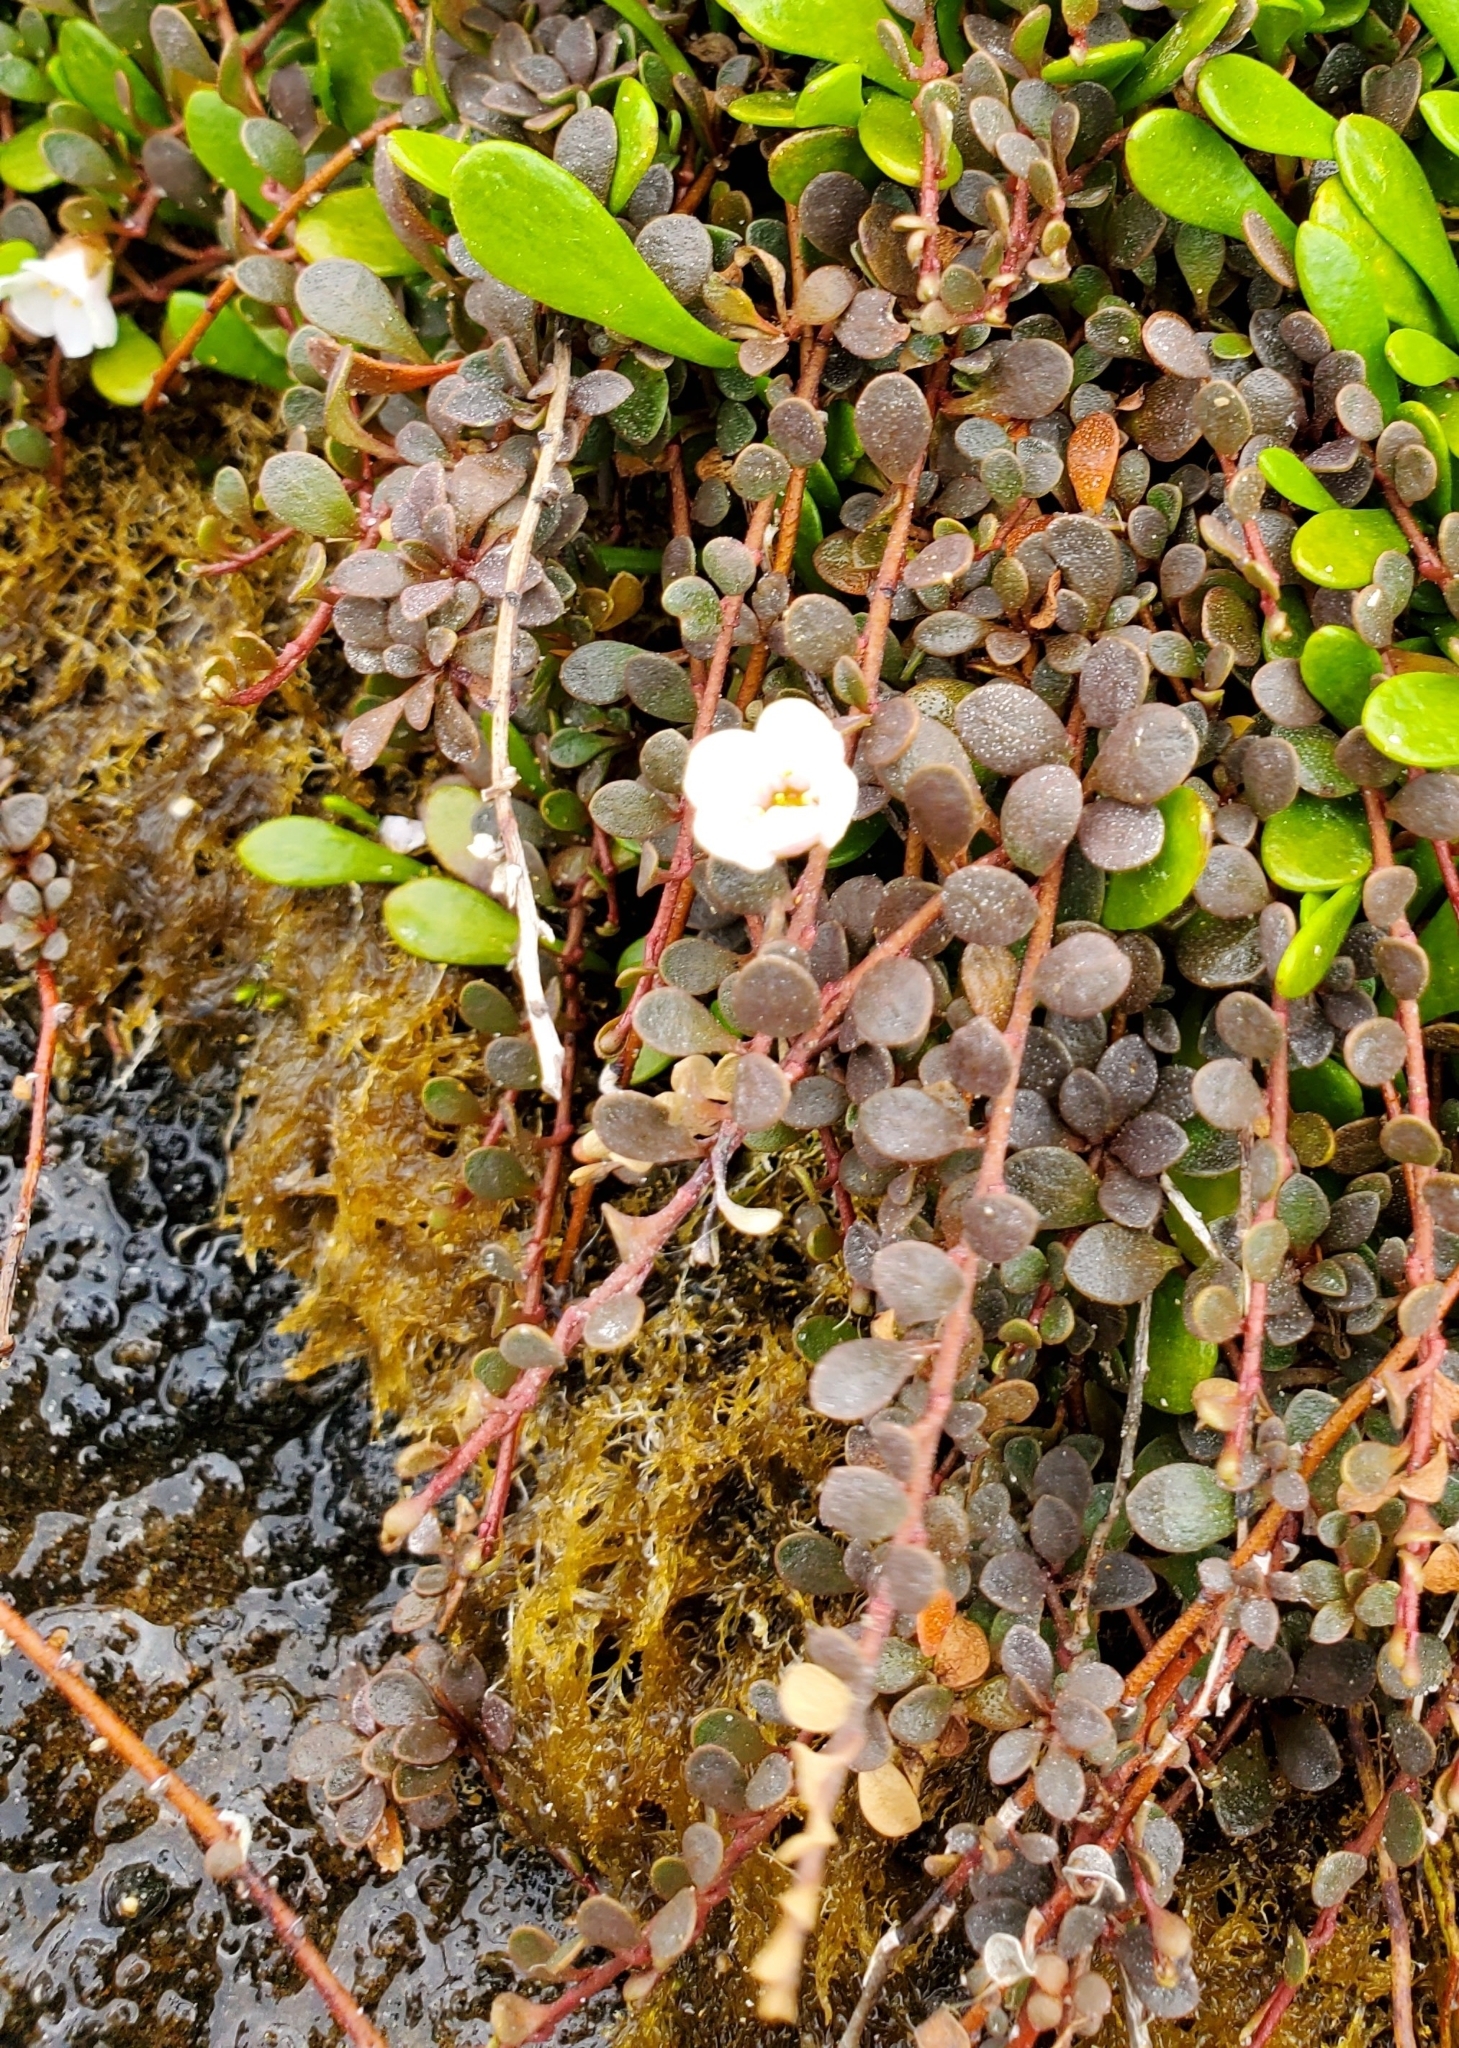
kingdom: Plantae
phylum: Tracheophyta
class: Magnoliopsida
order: Ericales
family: Primulaceae
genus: Samolus
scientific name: Samolus repens
